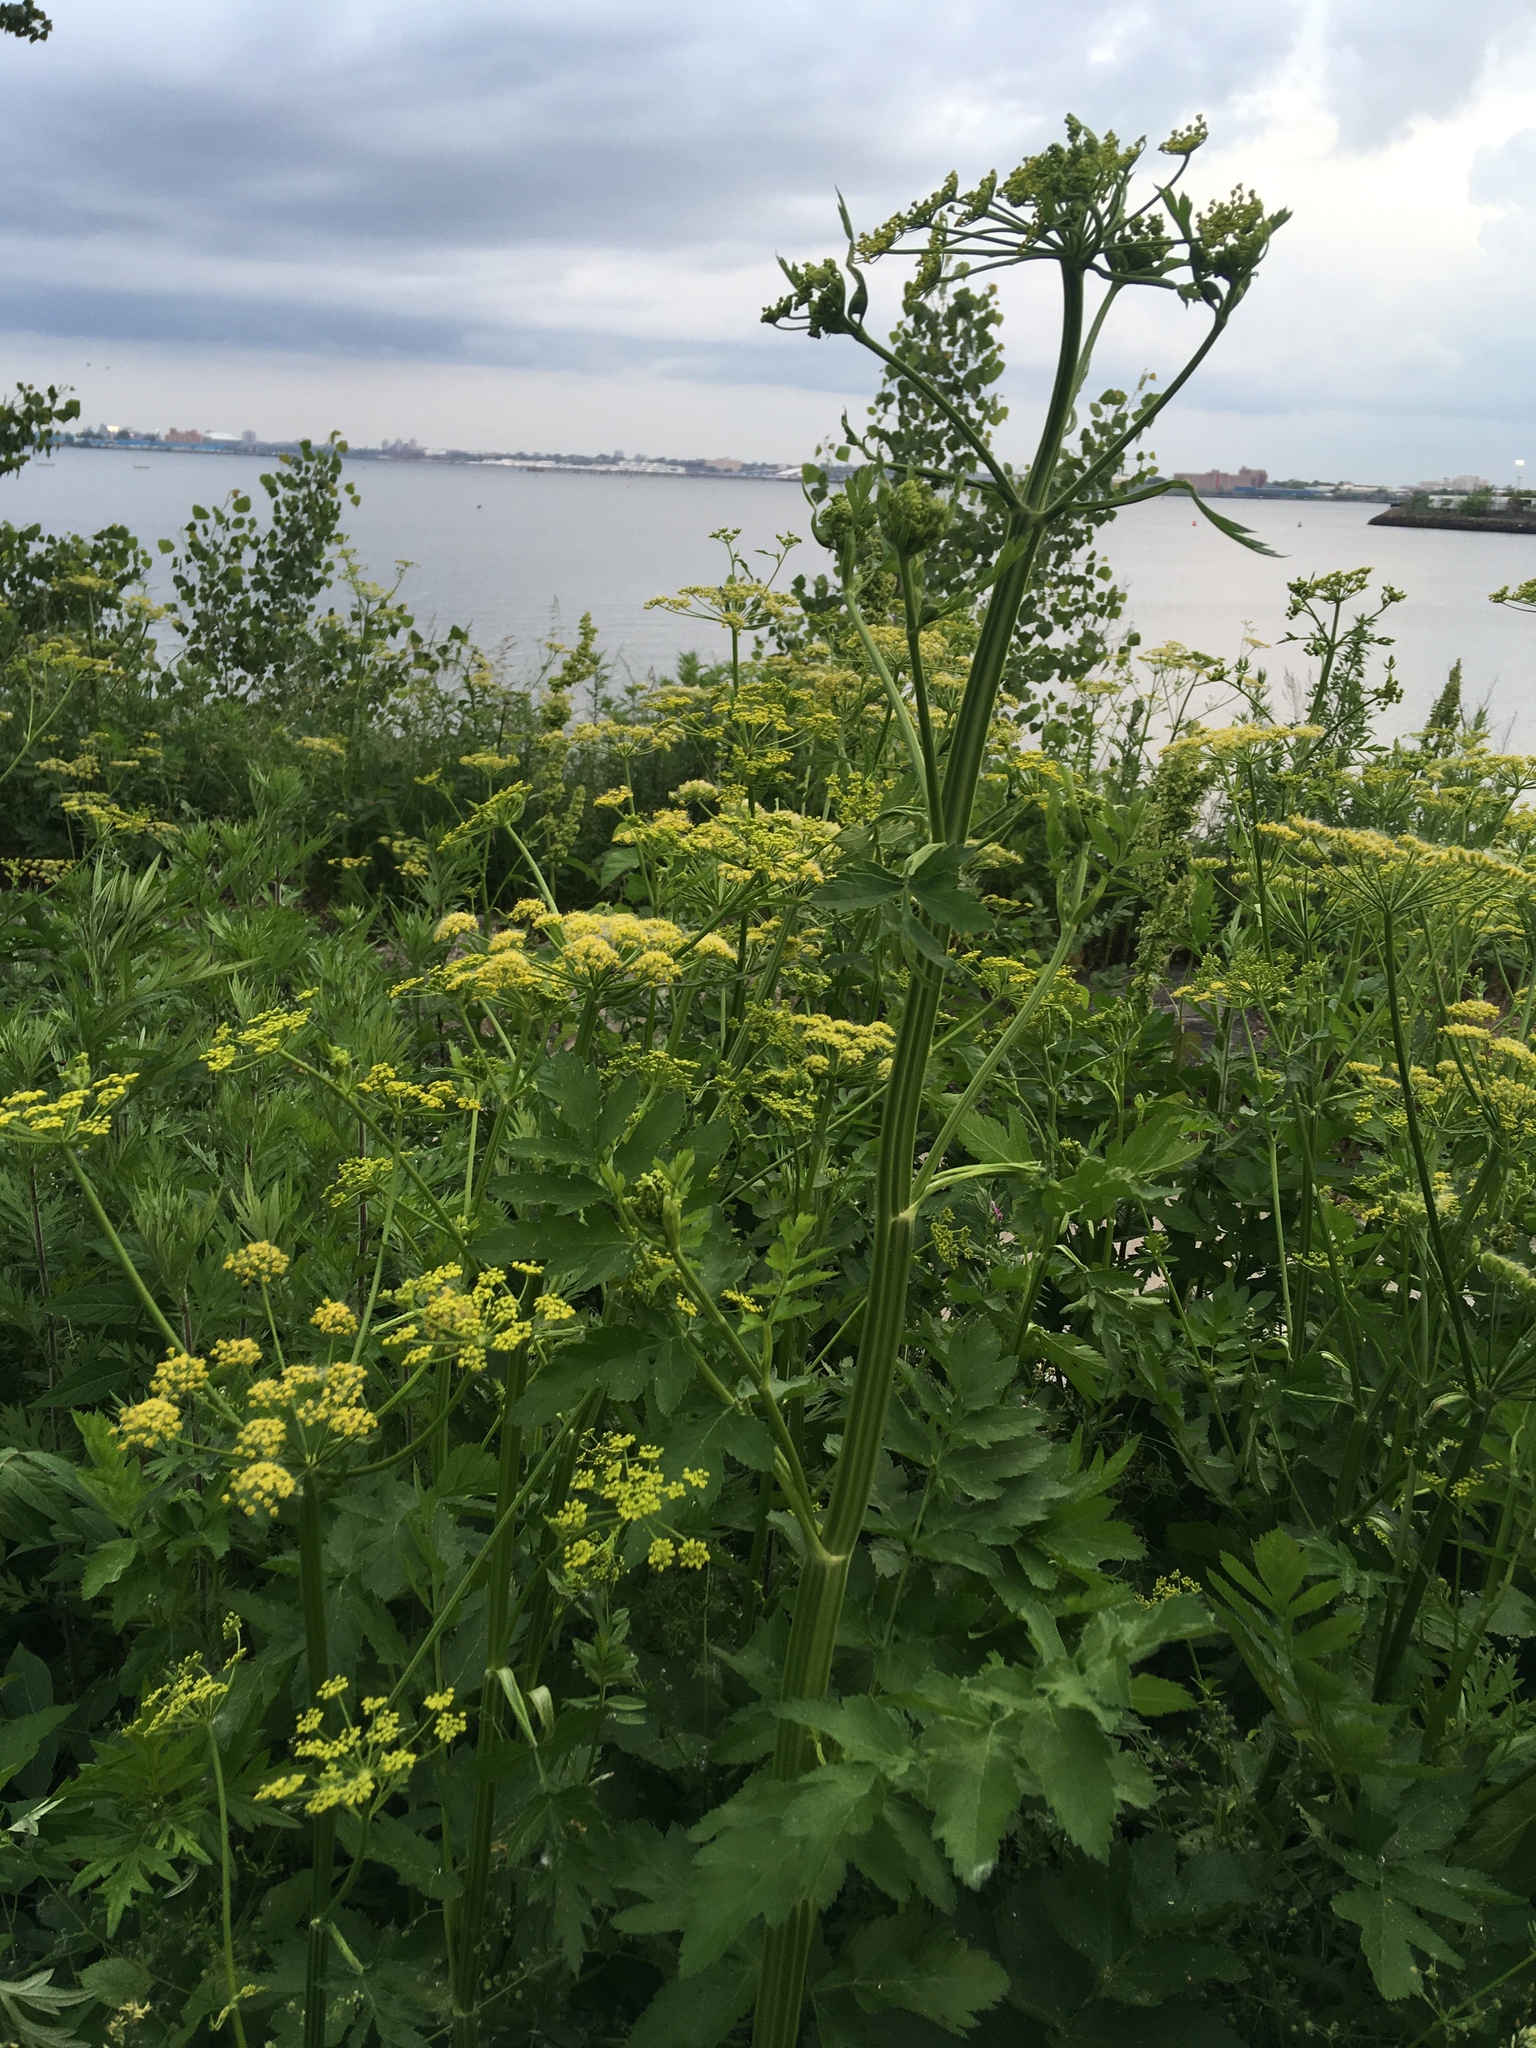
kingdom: Plantae
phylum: Tracheophyta
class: Magnoliopsida
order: Apiales
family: Apiaceae
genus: Pastinaca
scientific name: Pastinaca sativa
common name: Wild parsnip
